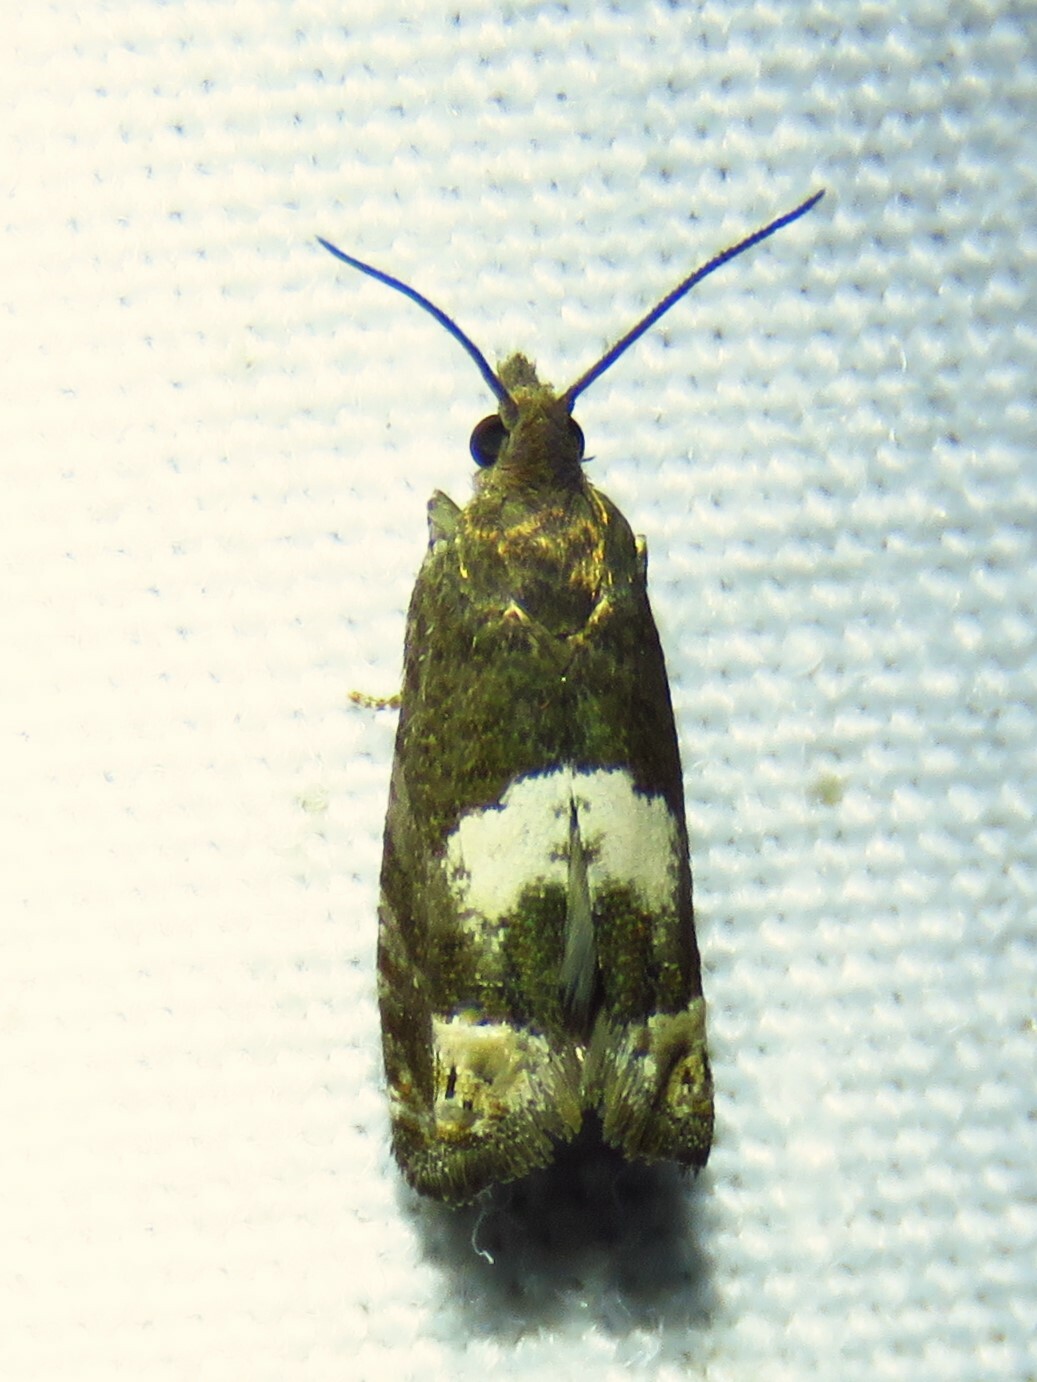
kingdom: Animalia
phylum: Arthropoda
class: Insecta
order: Lepidoptera
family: Tortricidae
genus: Eucosma
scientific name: Eucosma parmatana
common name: Aster eucosma moth
